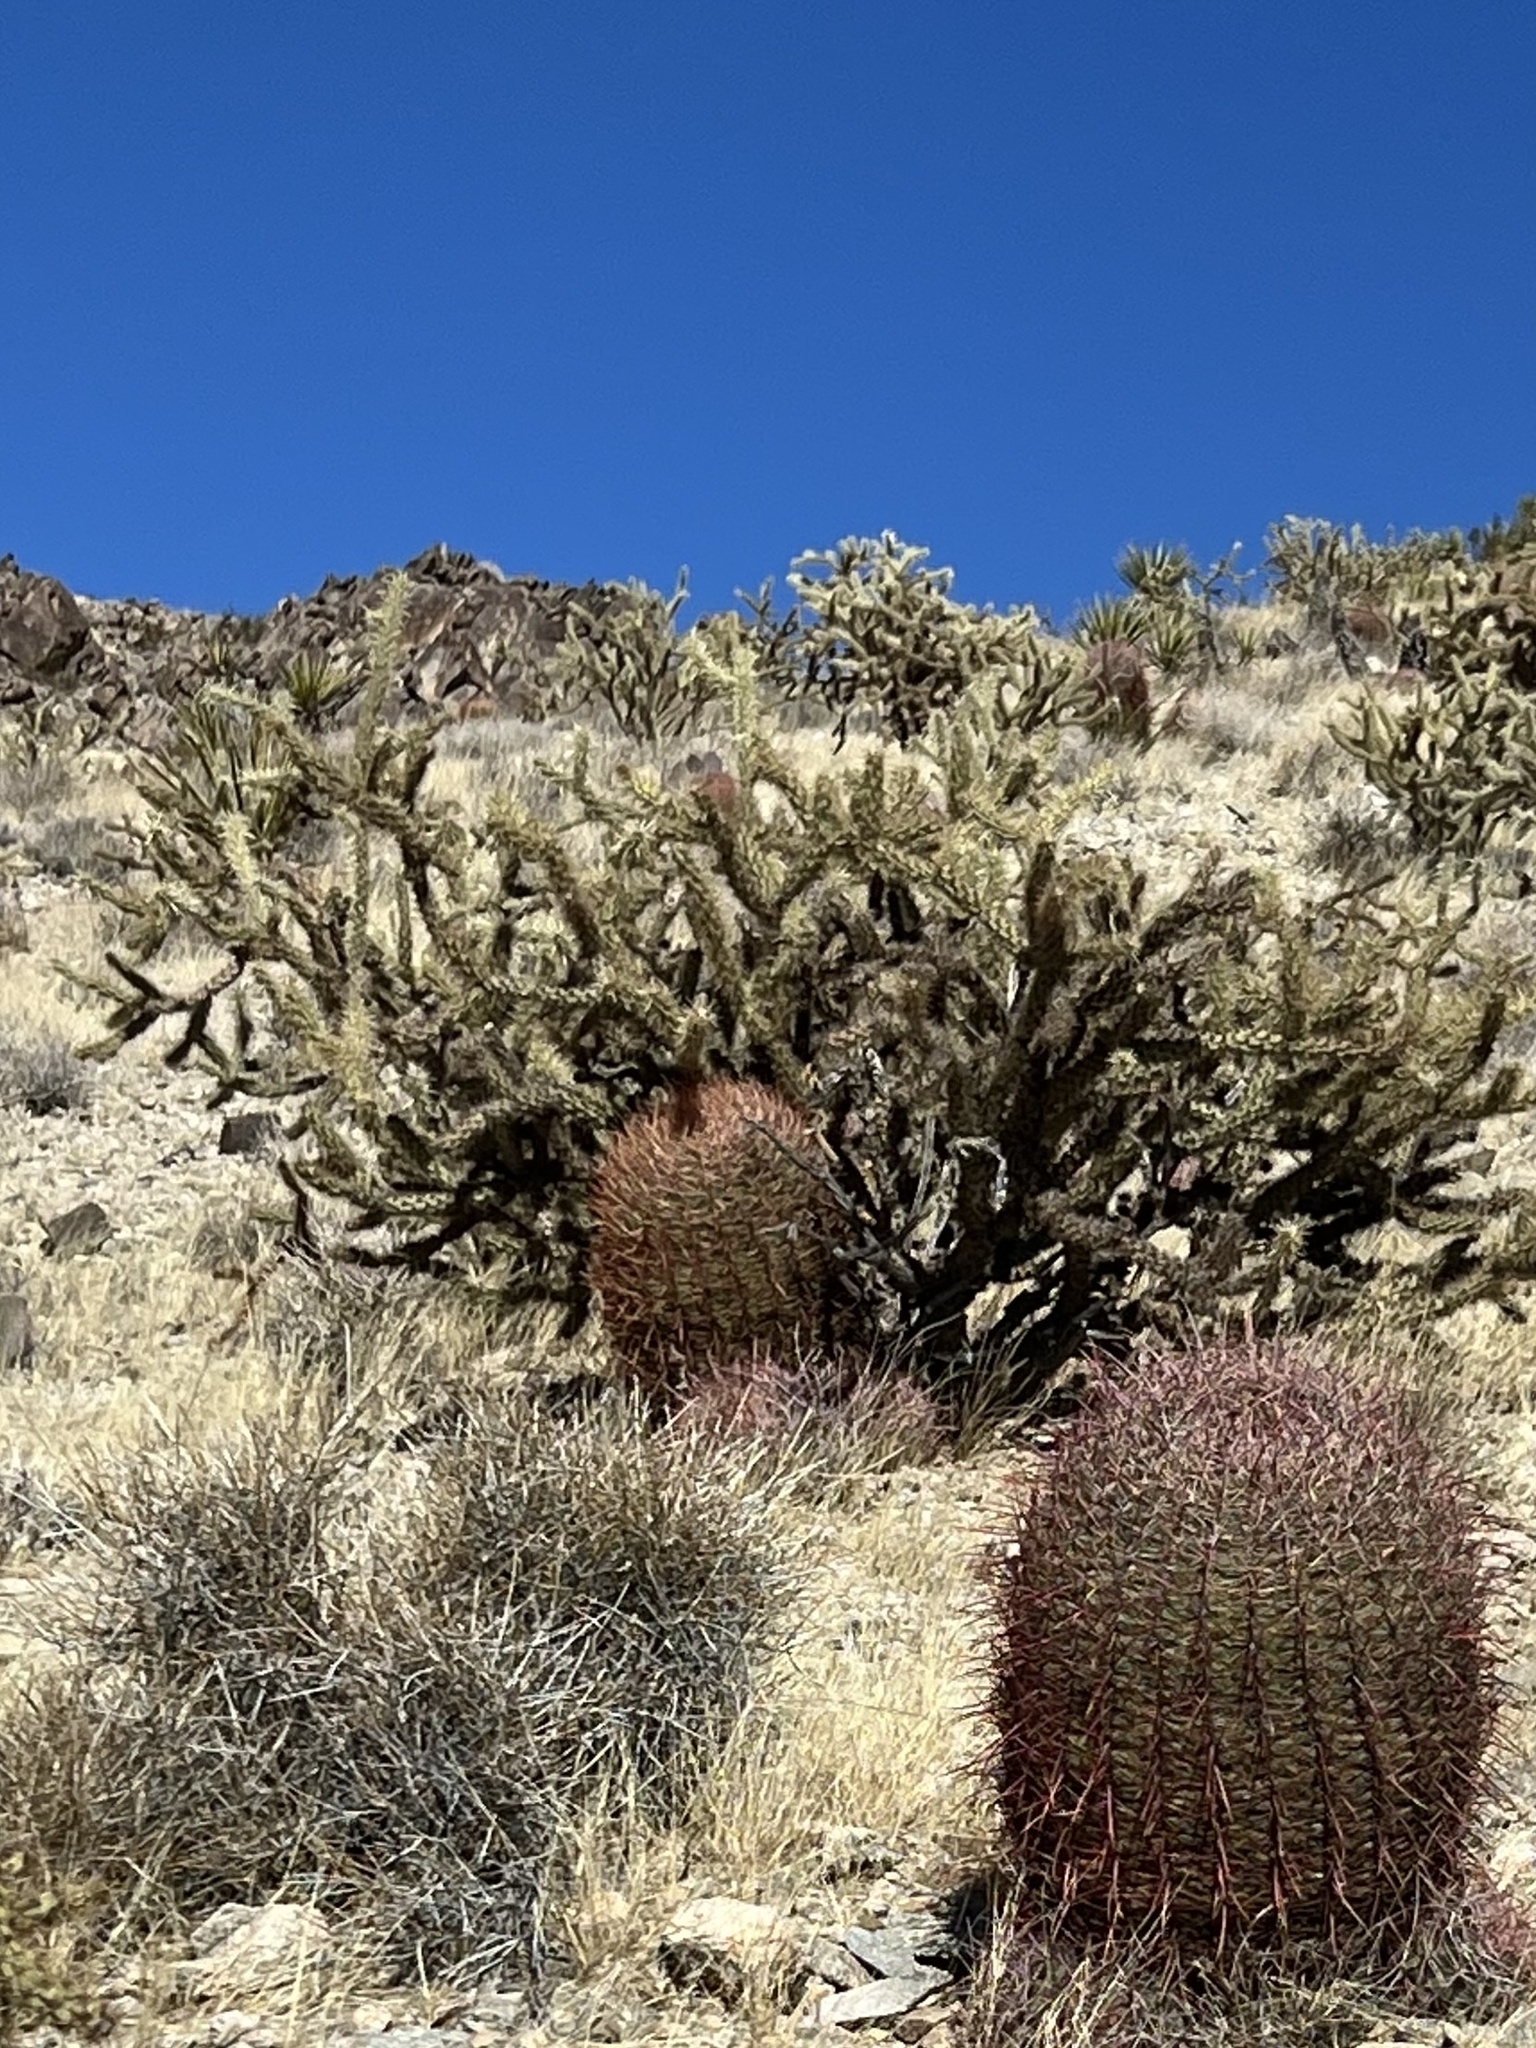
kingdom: Plantae
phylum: Tracheophyta
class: Magnoliopsida
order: Caryophyllales
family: Cactaceae
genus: Cylindropuntia
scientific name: Cylindropuntia acanthocarpa
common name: Buckhorn cholla
